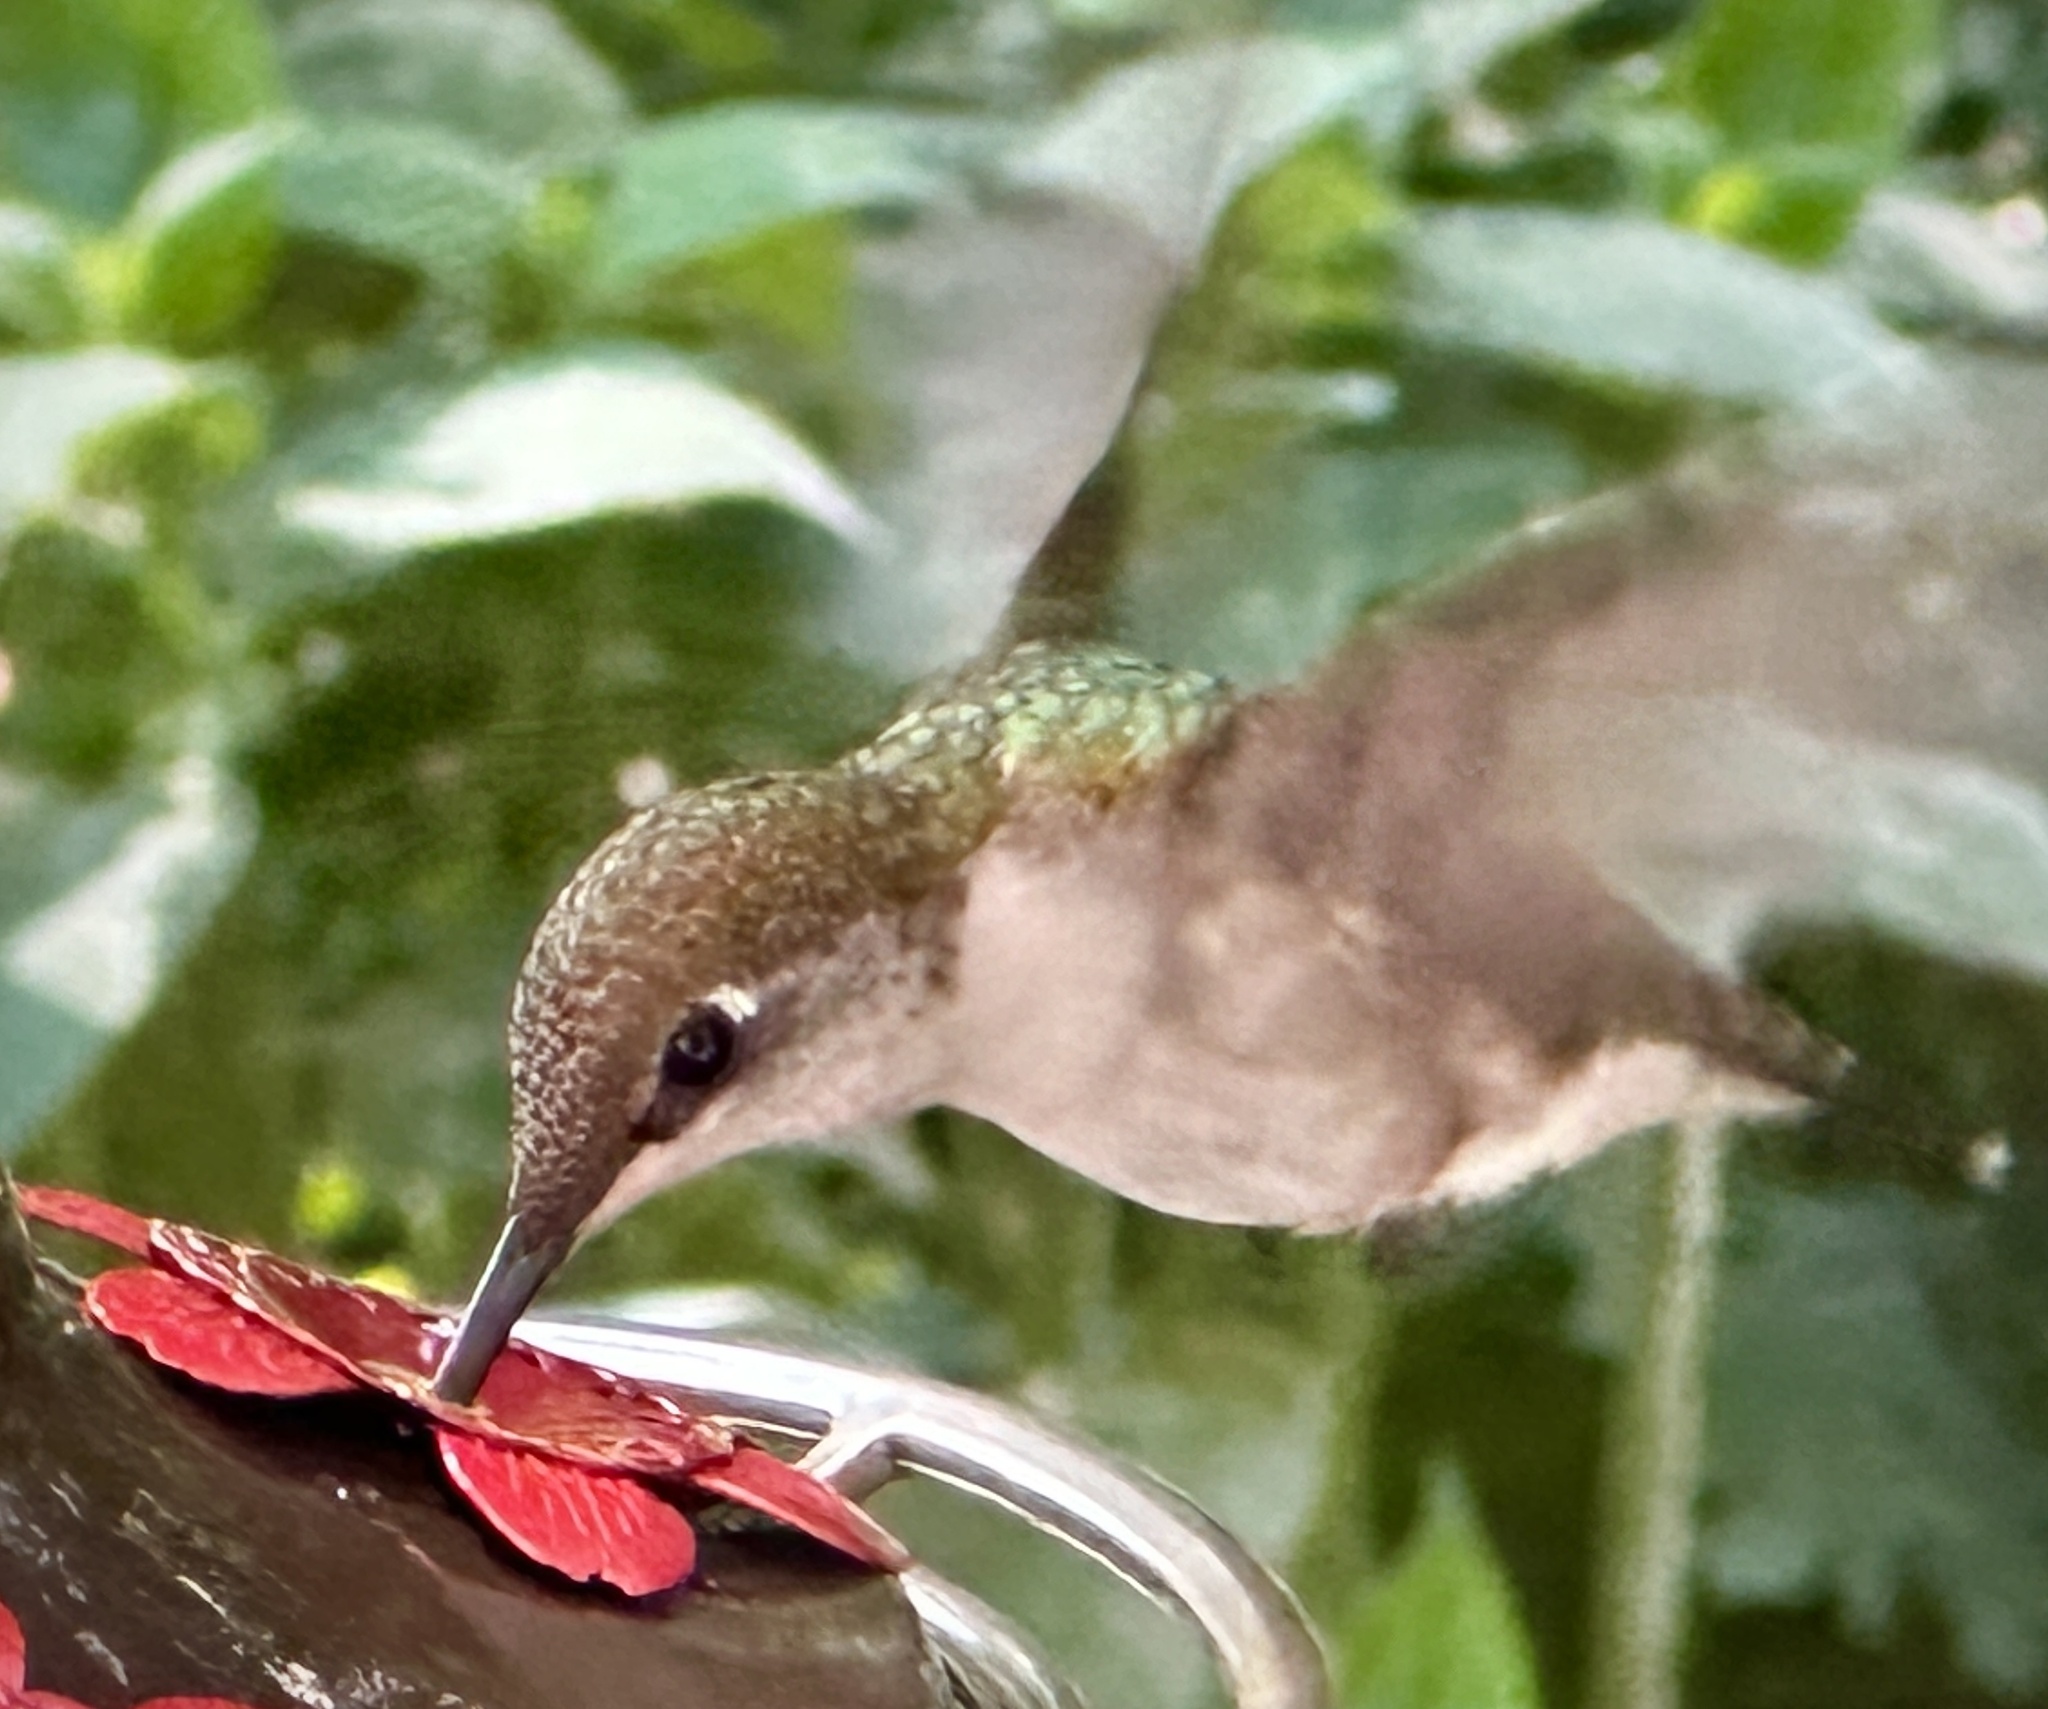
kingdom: Animalia
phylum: Chordata
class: Aves
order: Apodiformes
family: Trochilidae
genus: Archilochus
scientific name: Archilochus colubris
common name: Ruby-throated hummingbird
